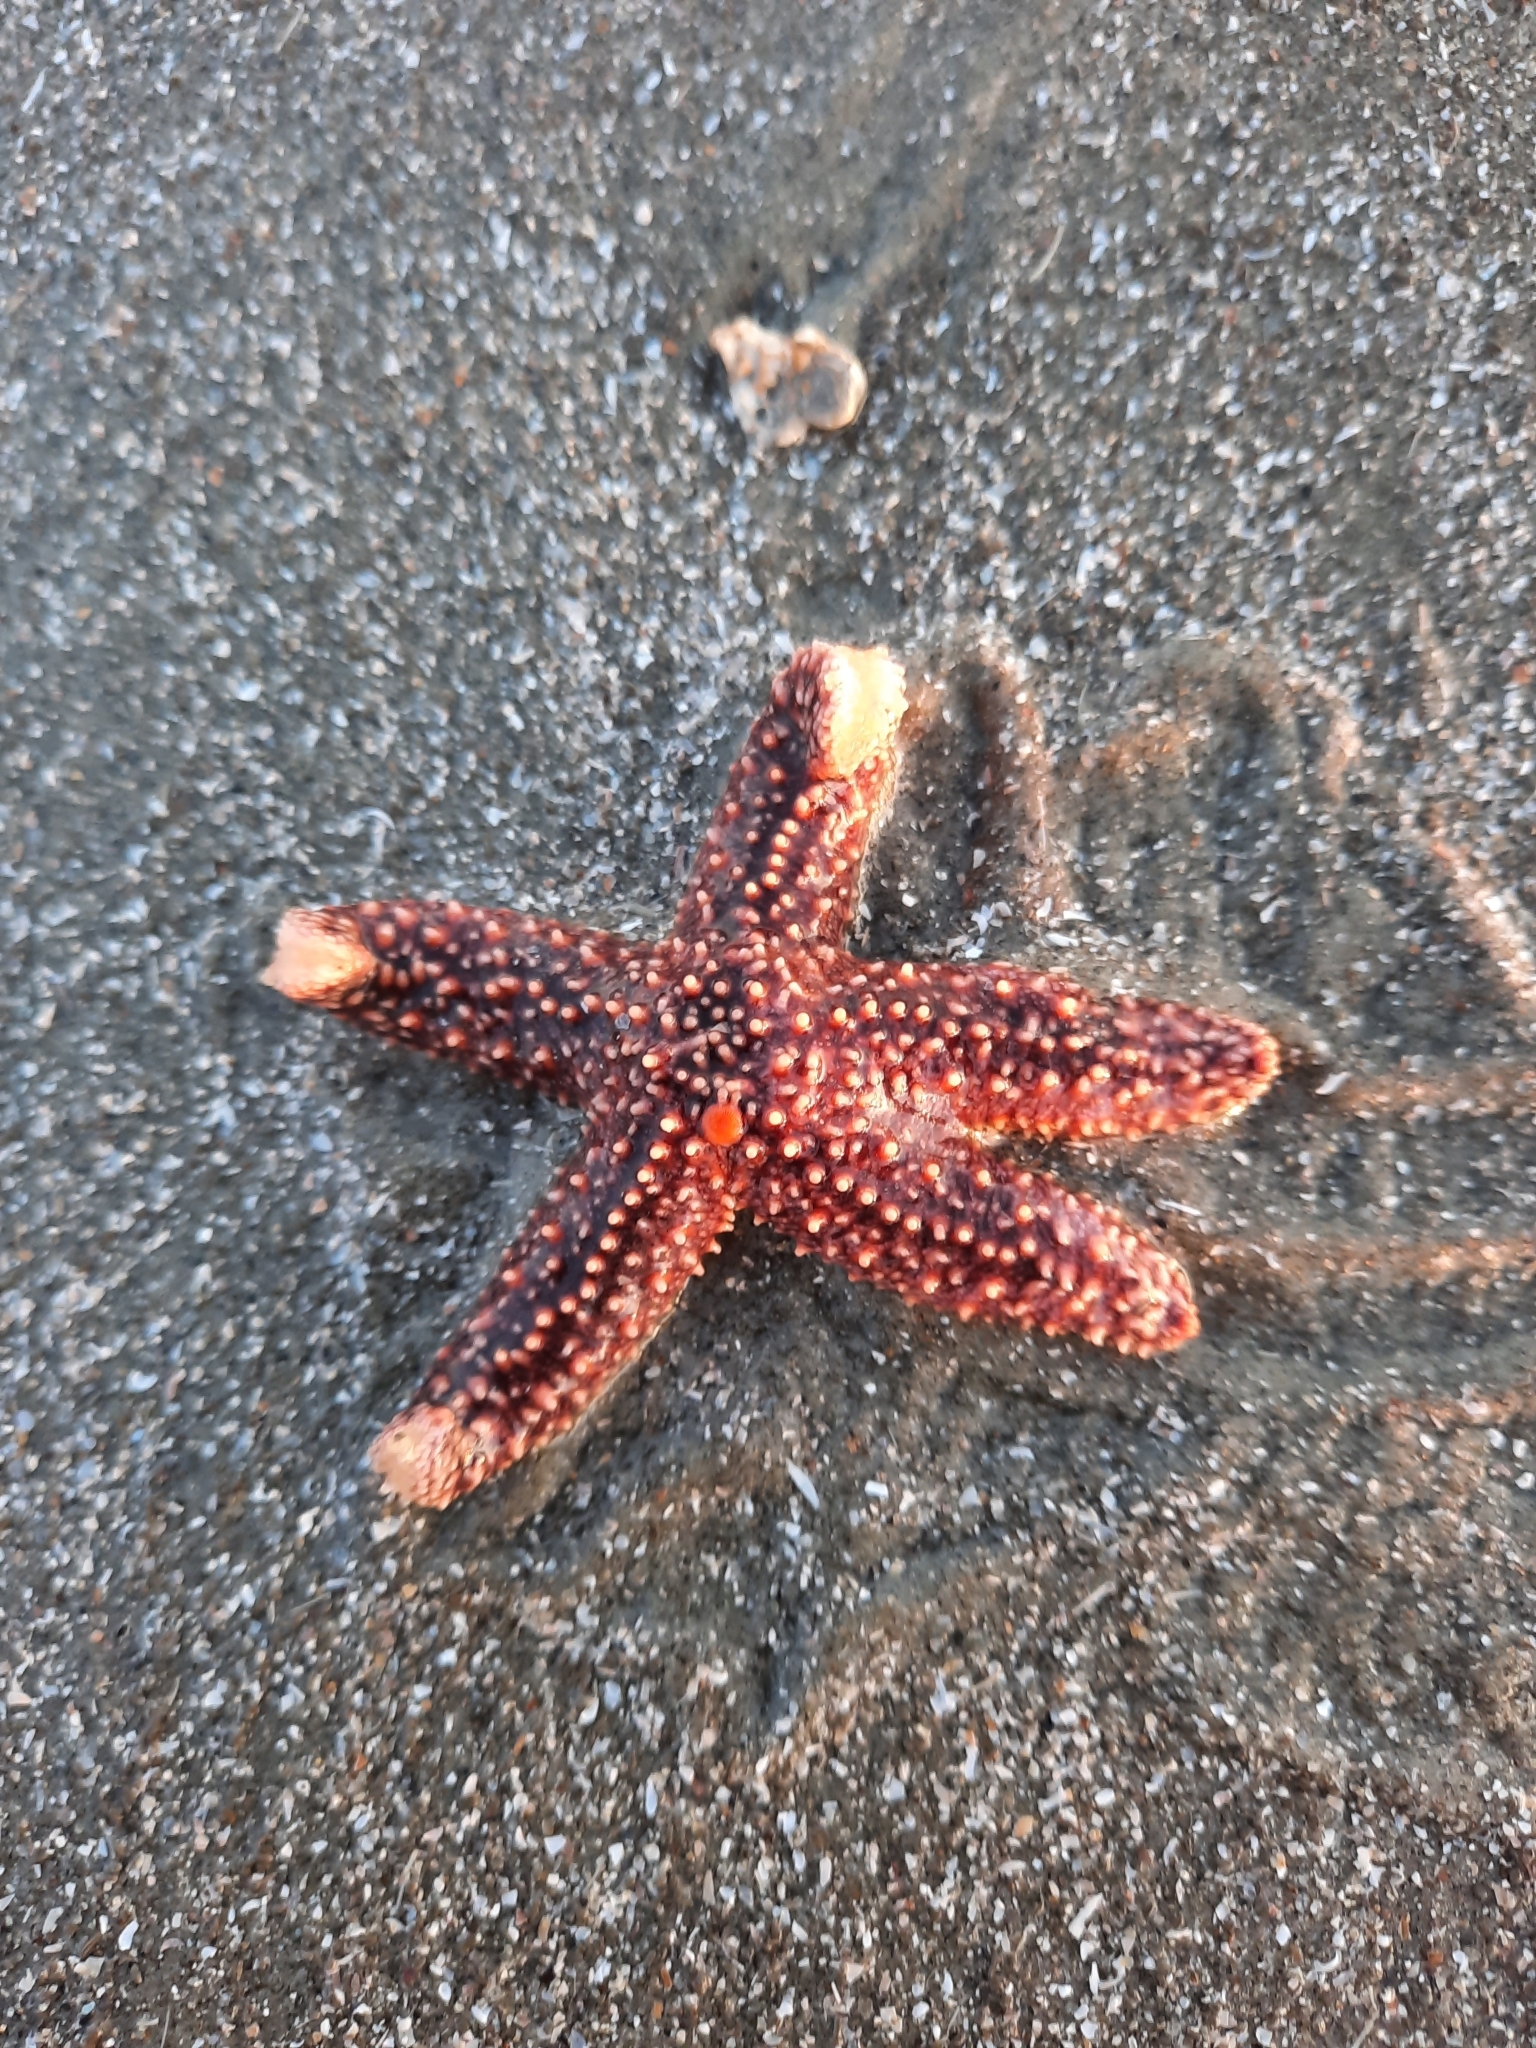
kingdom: Animalia
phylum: Echinodermata
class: Asteroidea
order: Forcipulatida
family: Asteriidae
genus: Asterias
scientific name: Asterias forbesi
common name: Forbes's sea star
